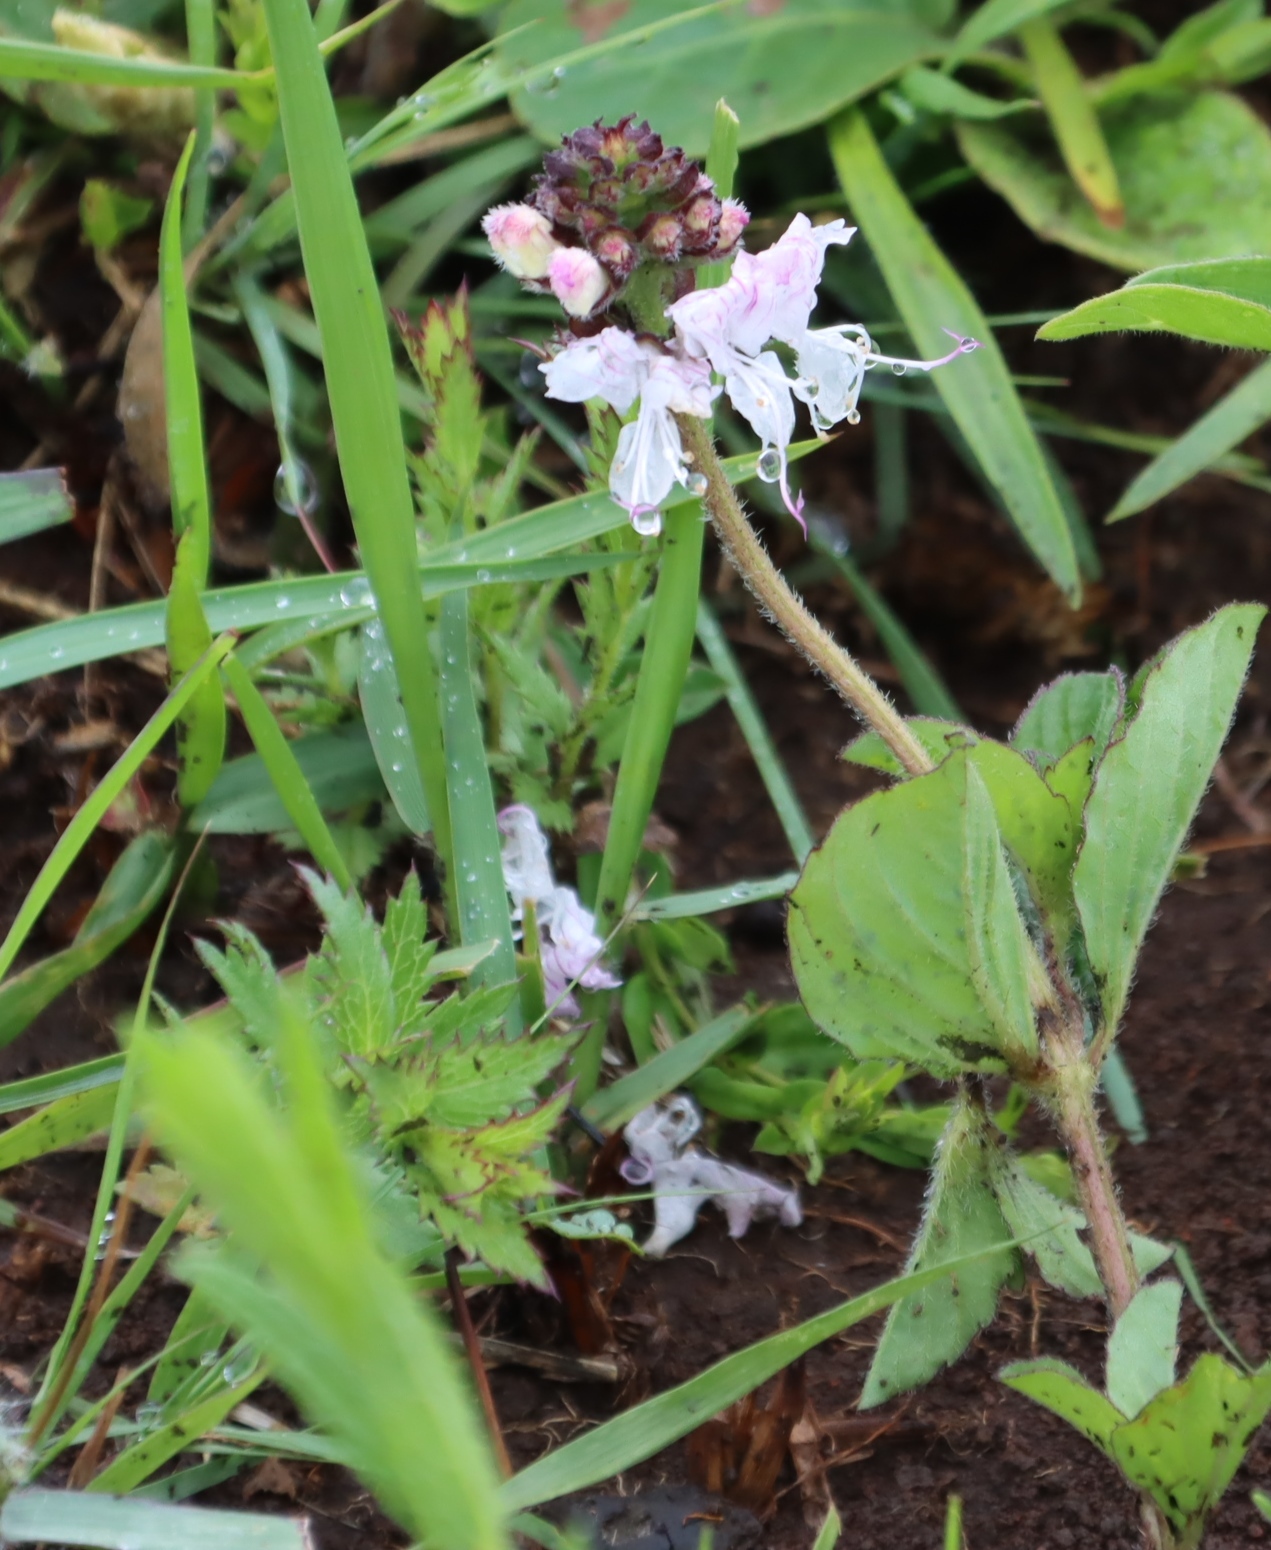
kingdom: Plantae
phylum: Tracheophyta
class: Magnoliopsida
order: Lamiales
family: Lamiaceae
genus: Ocimum
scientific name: Ocimum obovatum
